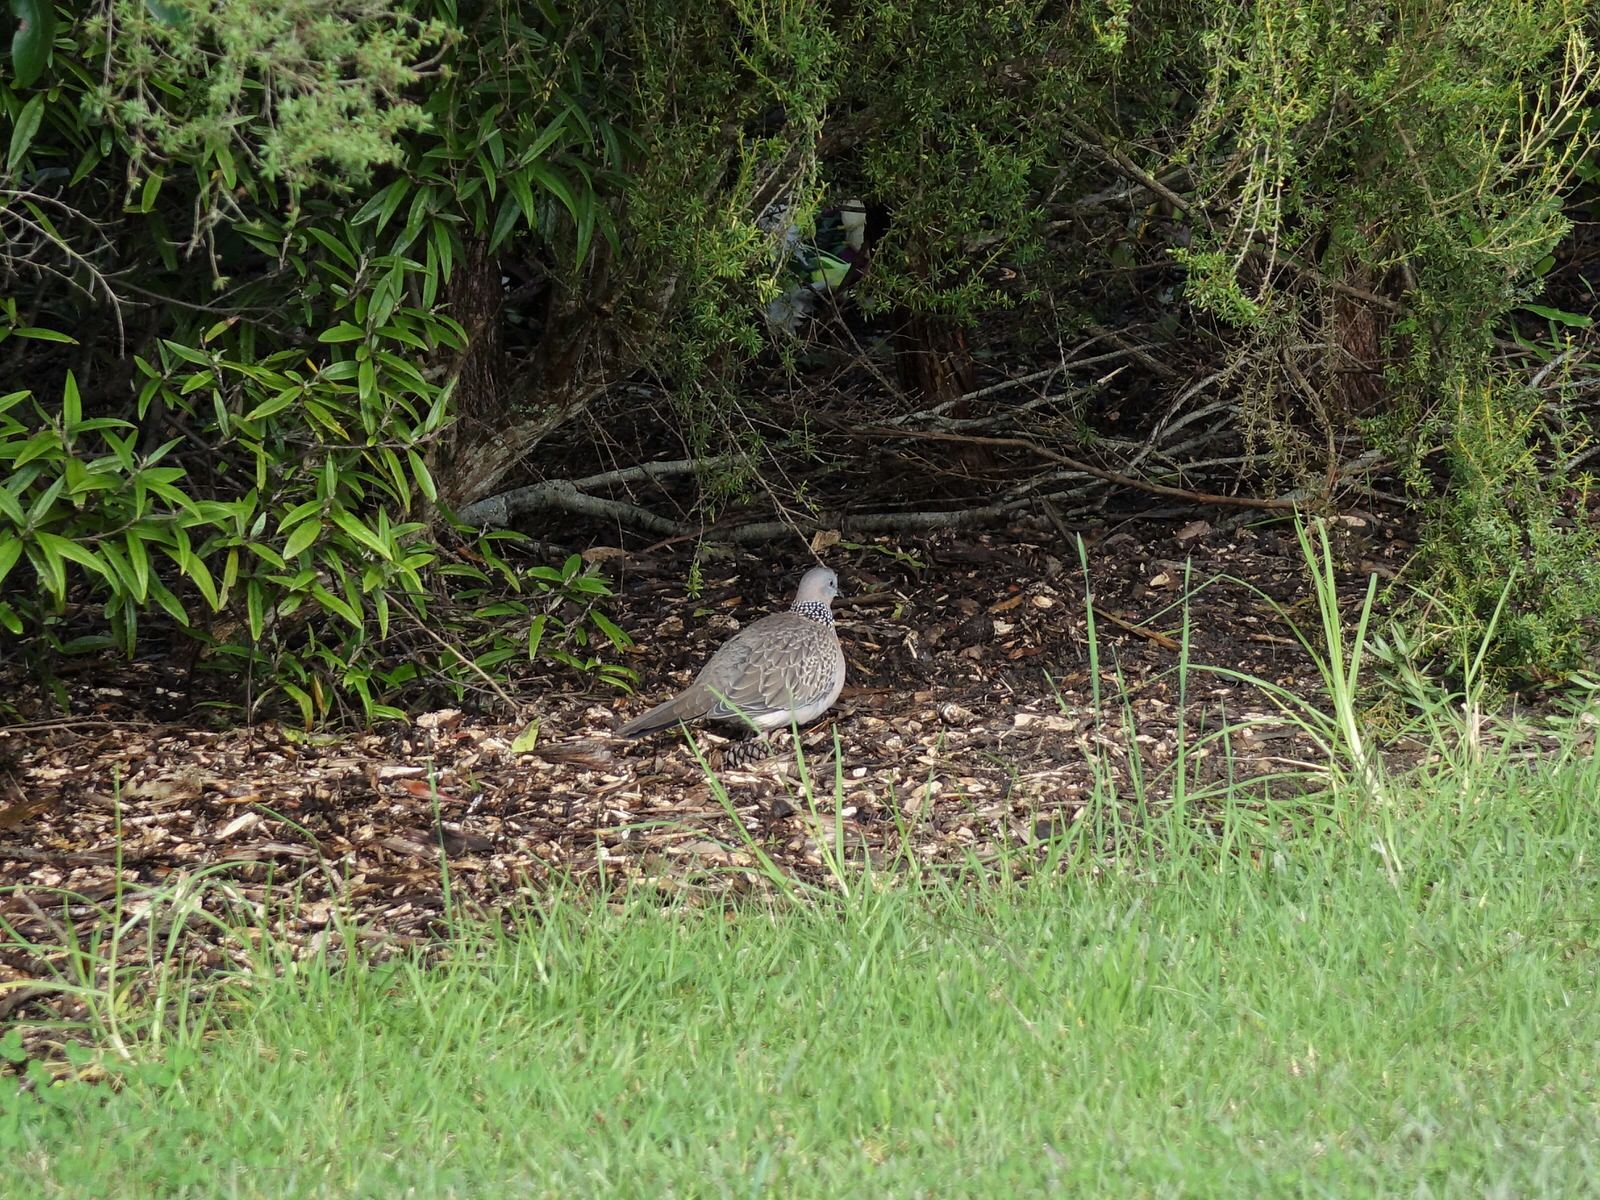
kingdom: Animalia
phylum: Chordata
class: Aves
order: Columbiformes
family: Columbidae
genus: Spilopelia
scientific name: Spilopelia chinensis
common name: Spotted dove
